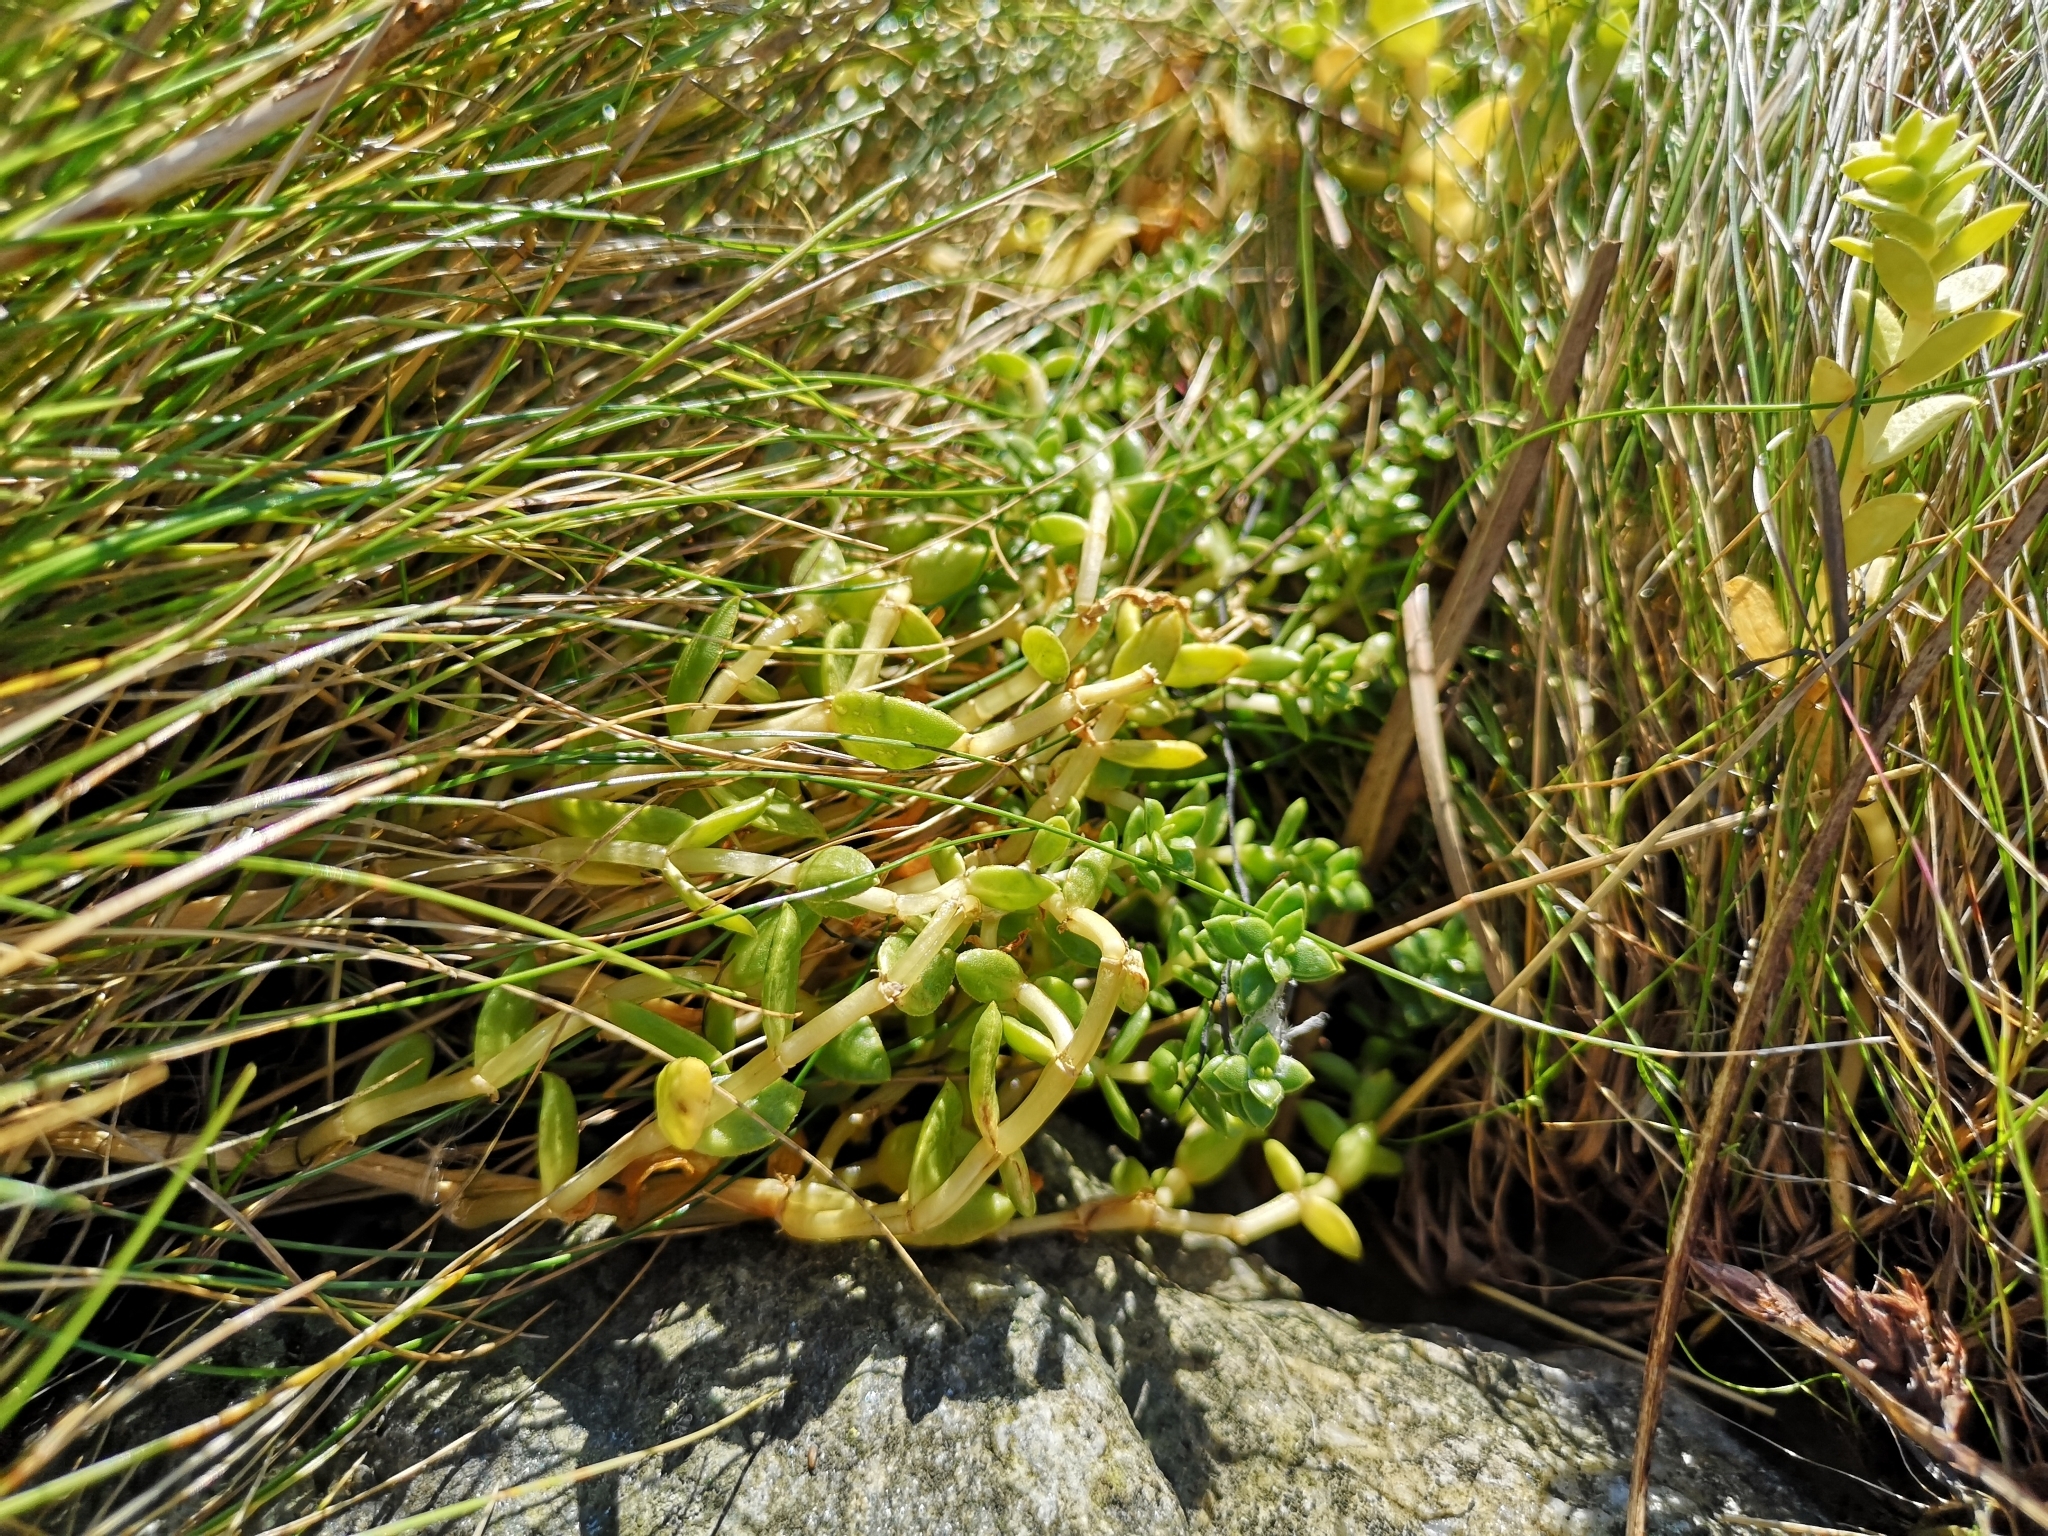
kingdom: Plantae
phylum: Tracheophyta
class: Magnoliopsida
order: Ericales
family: Primulaceae
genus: Lysimachia
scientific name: Lysimachia maritima
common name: Sea milkwort
